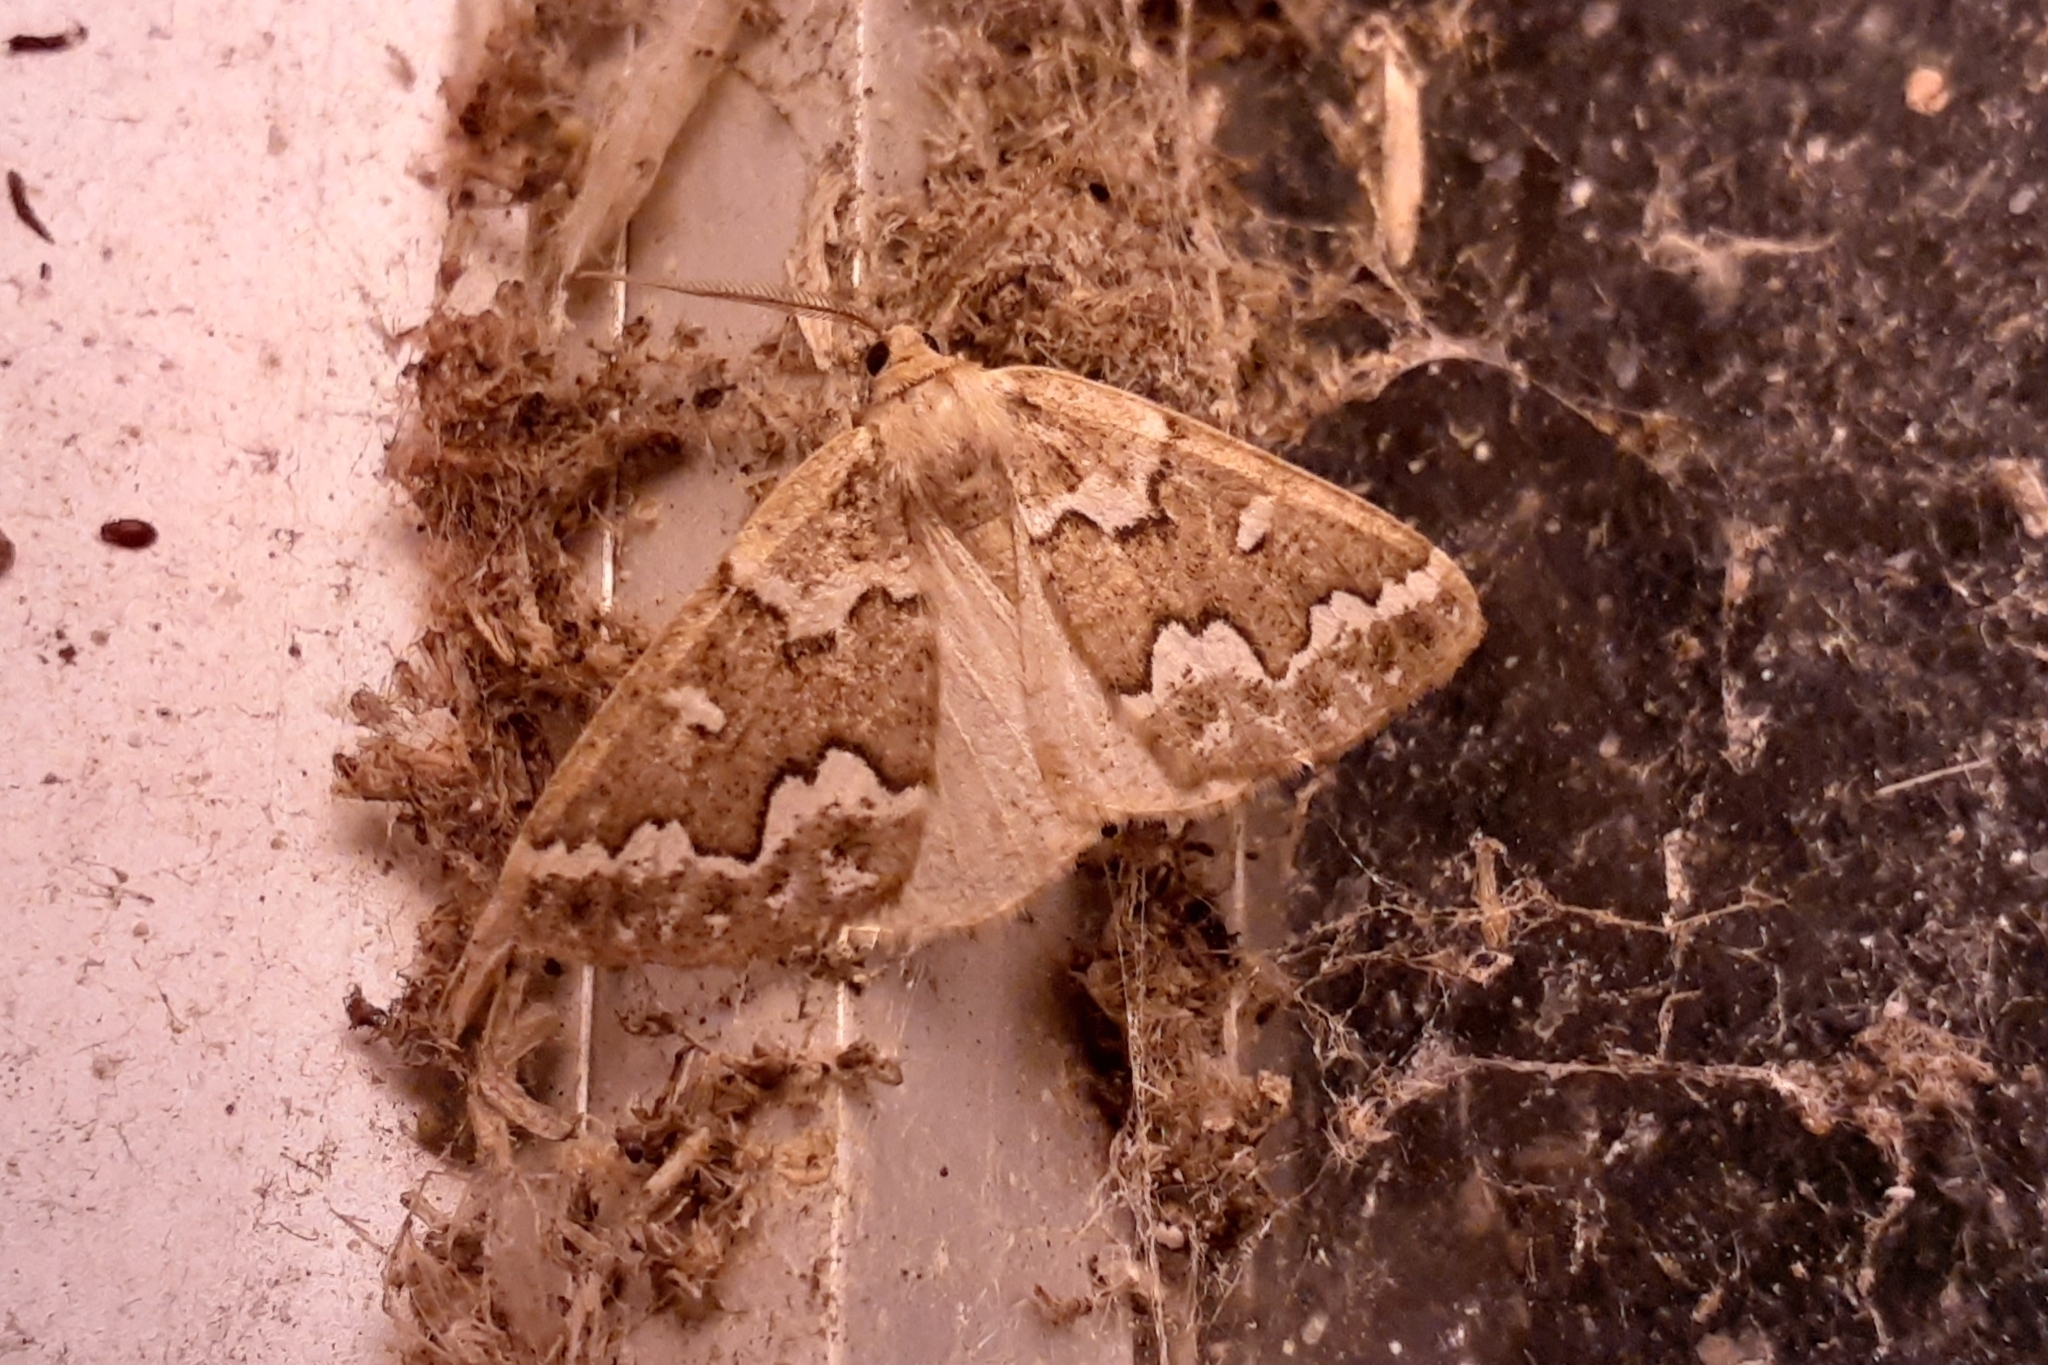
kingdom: Animalia
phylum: Arthropoda
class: Insecta
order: Lepidoptera
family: Geometridae
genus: Caripeta
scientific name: Caripeta divisata
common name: Gray spruce looper
